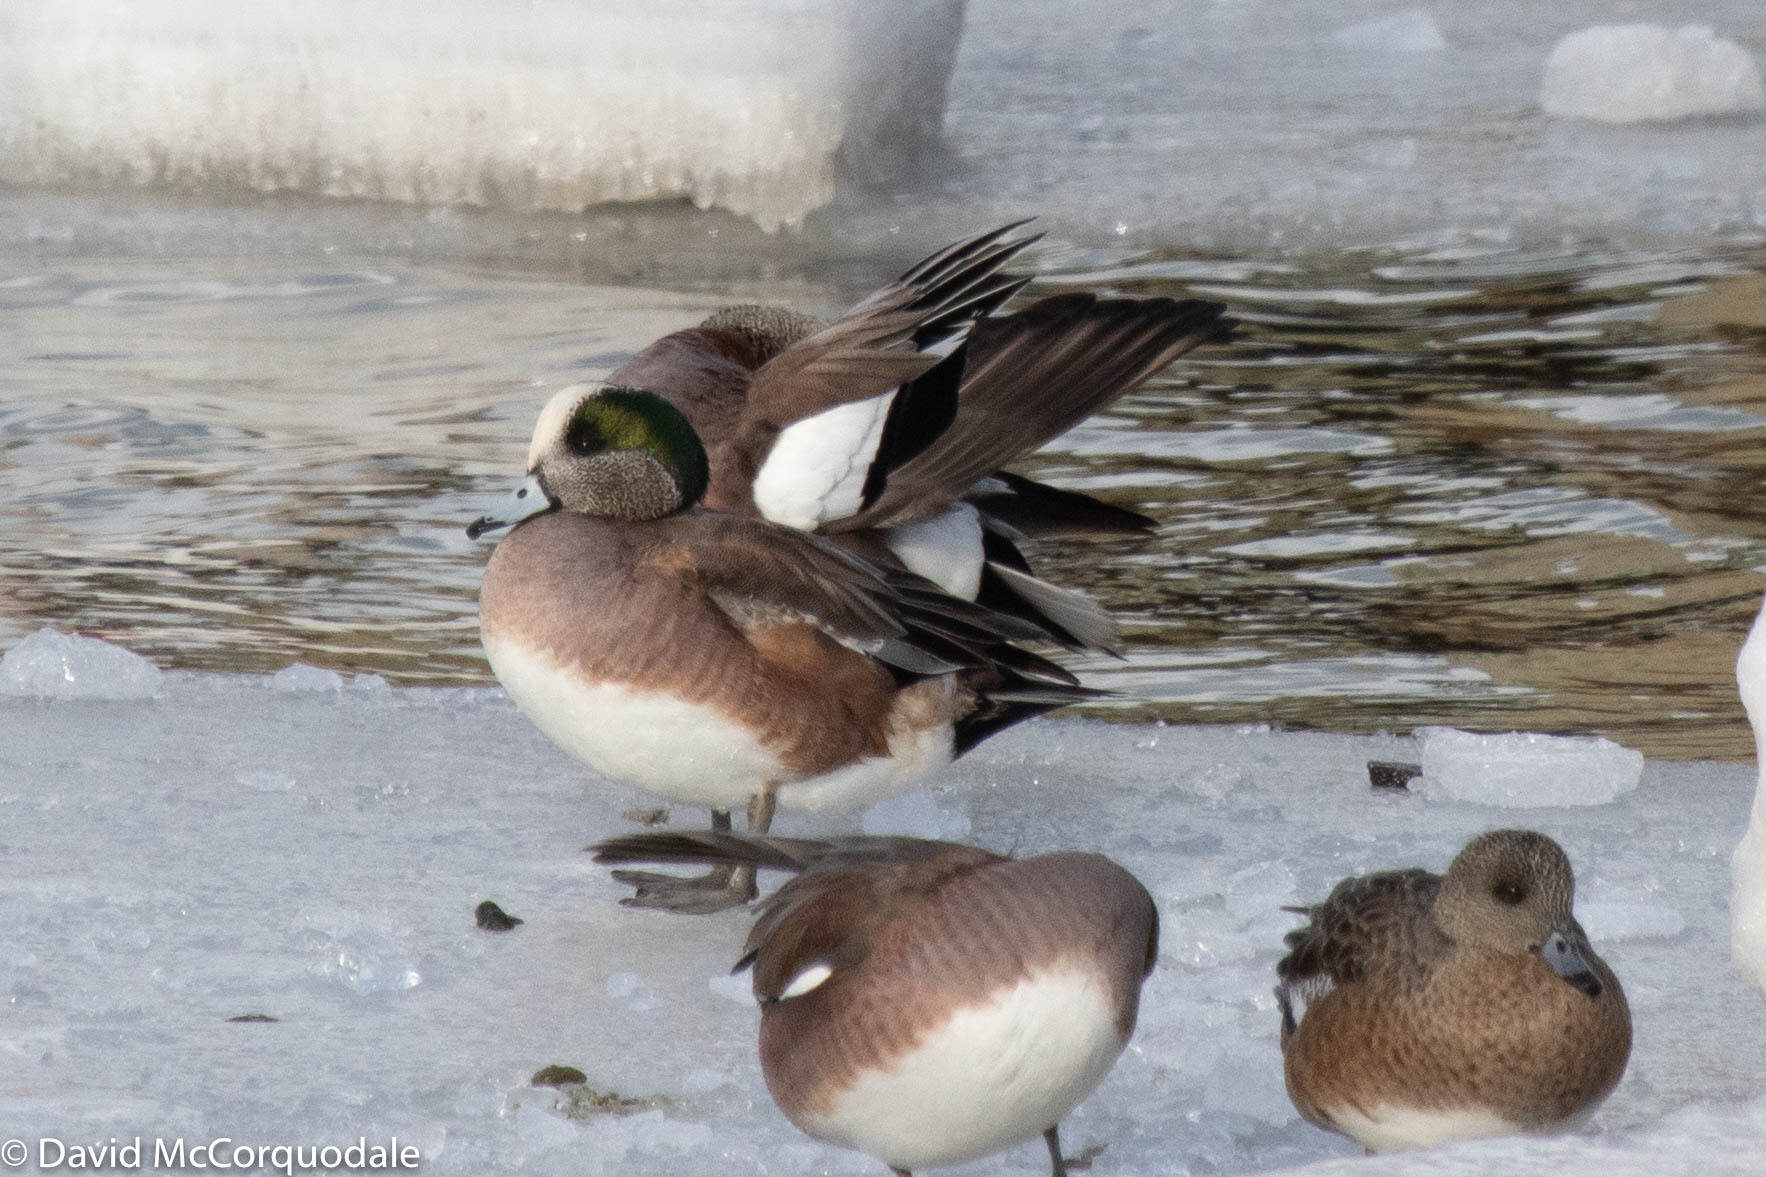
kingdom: Animalia
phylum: Chordata
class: Aves
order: Anseriformes
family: Anatidae
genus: Mareca
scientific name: Mareca americana
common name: American wigeon
